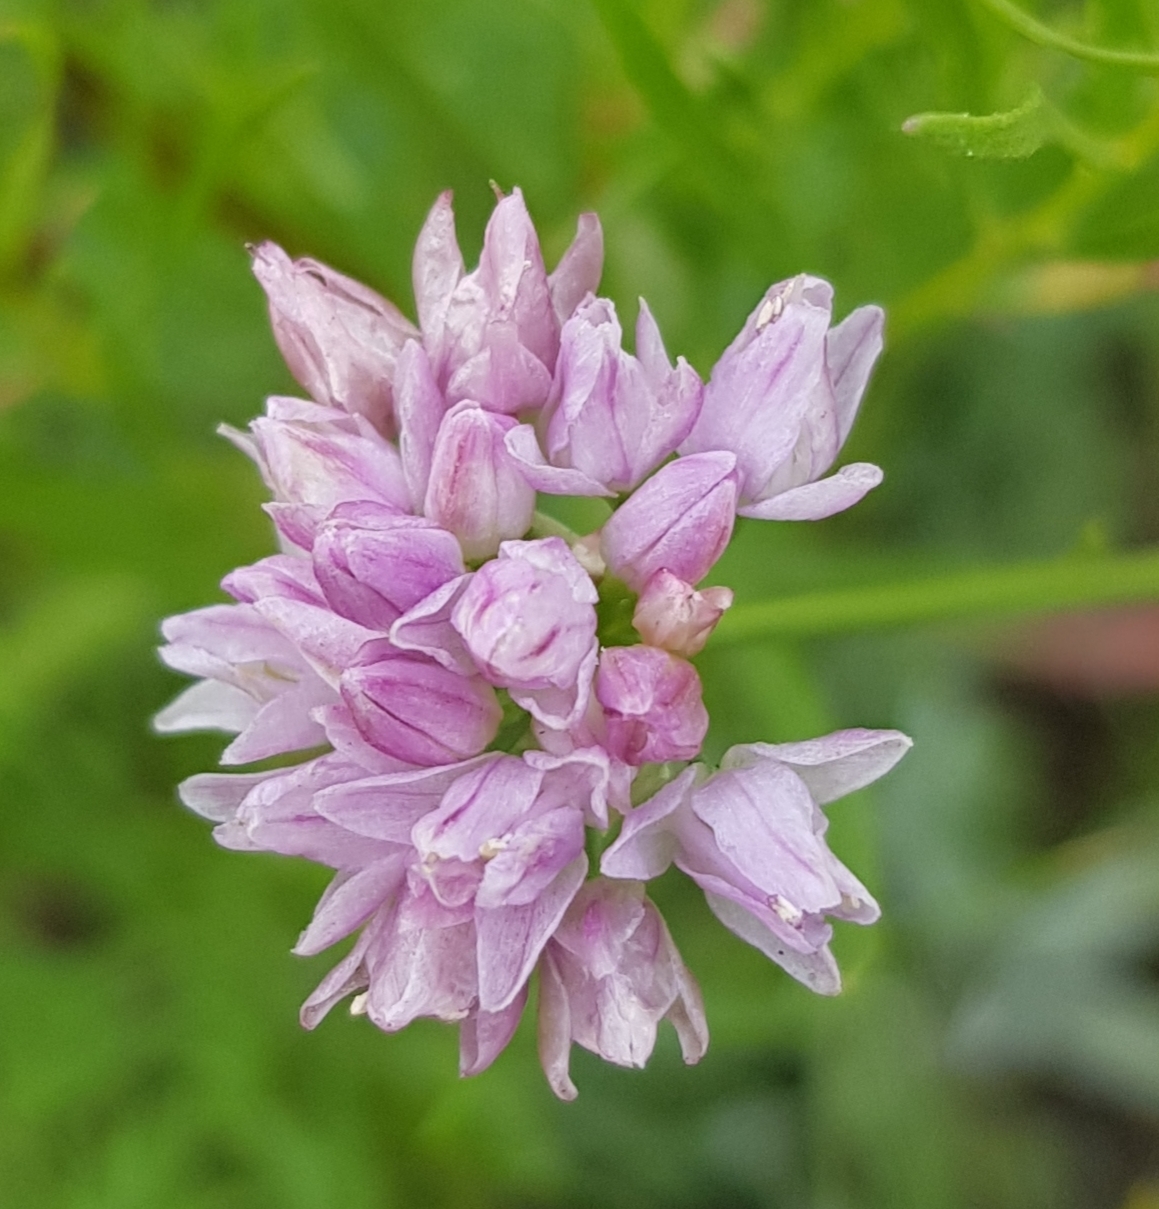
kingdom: Plantae
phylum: Tracheophyta
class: Liliopsida
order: Asparagales
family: Amaryllidaceae
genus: Allium
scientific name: Allium bidentatum
